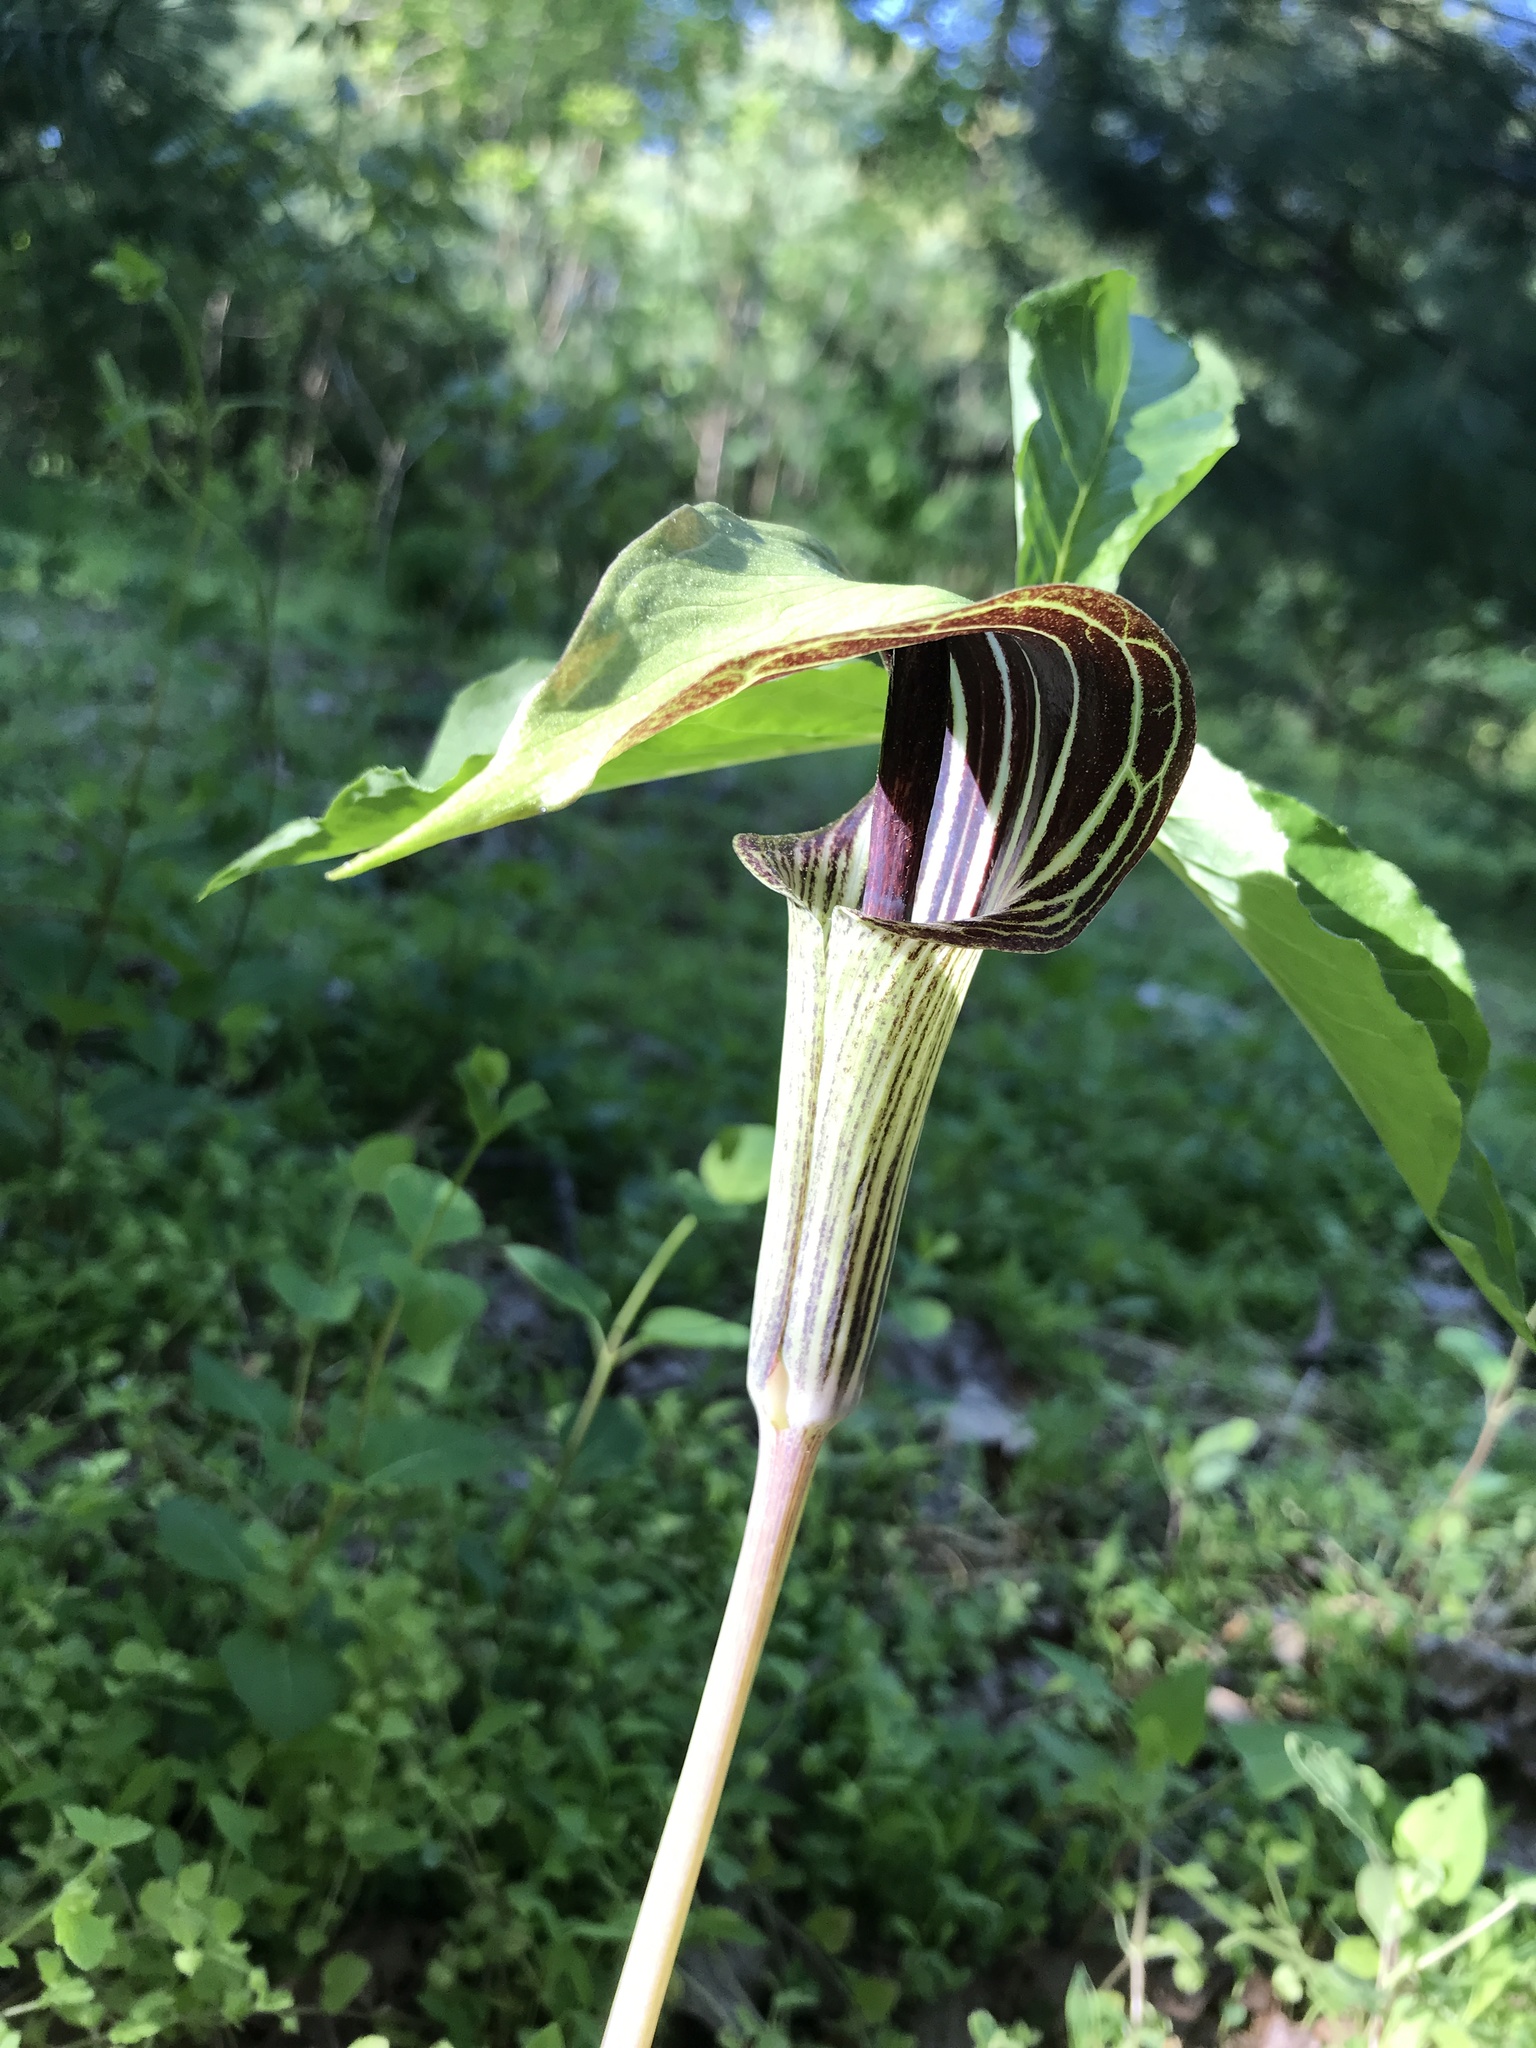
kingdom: Plantae
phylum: Tracheophyta
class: Liliopsida
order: Alismatales
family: Araceae
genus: Arisaema
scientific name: Arisaema triphyllum
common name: Jack-in-the-pulpit
